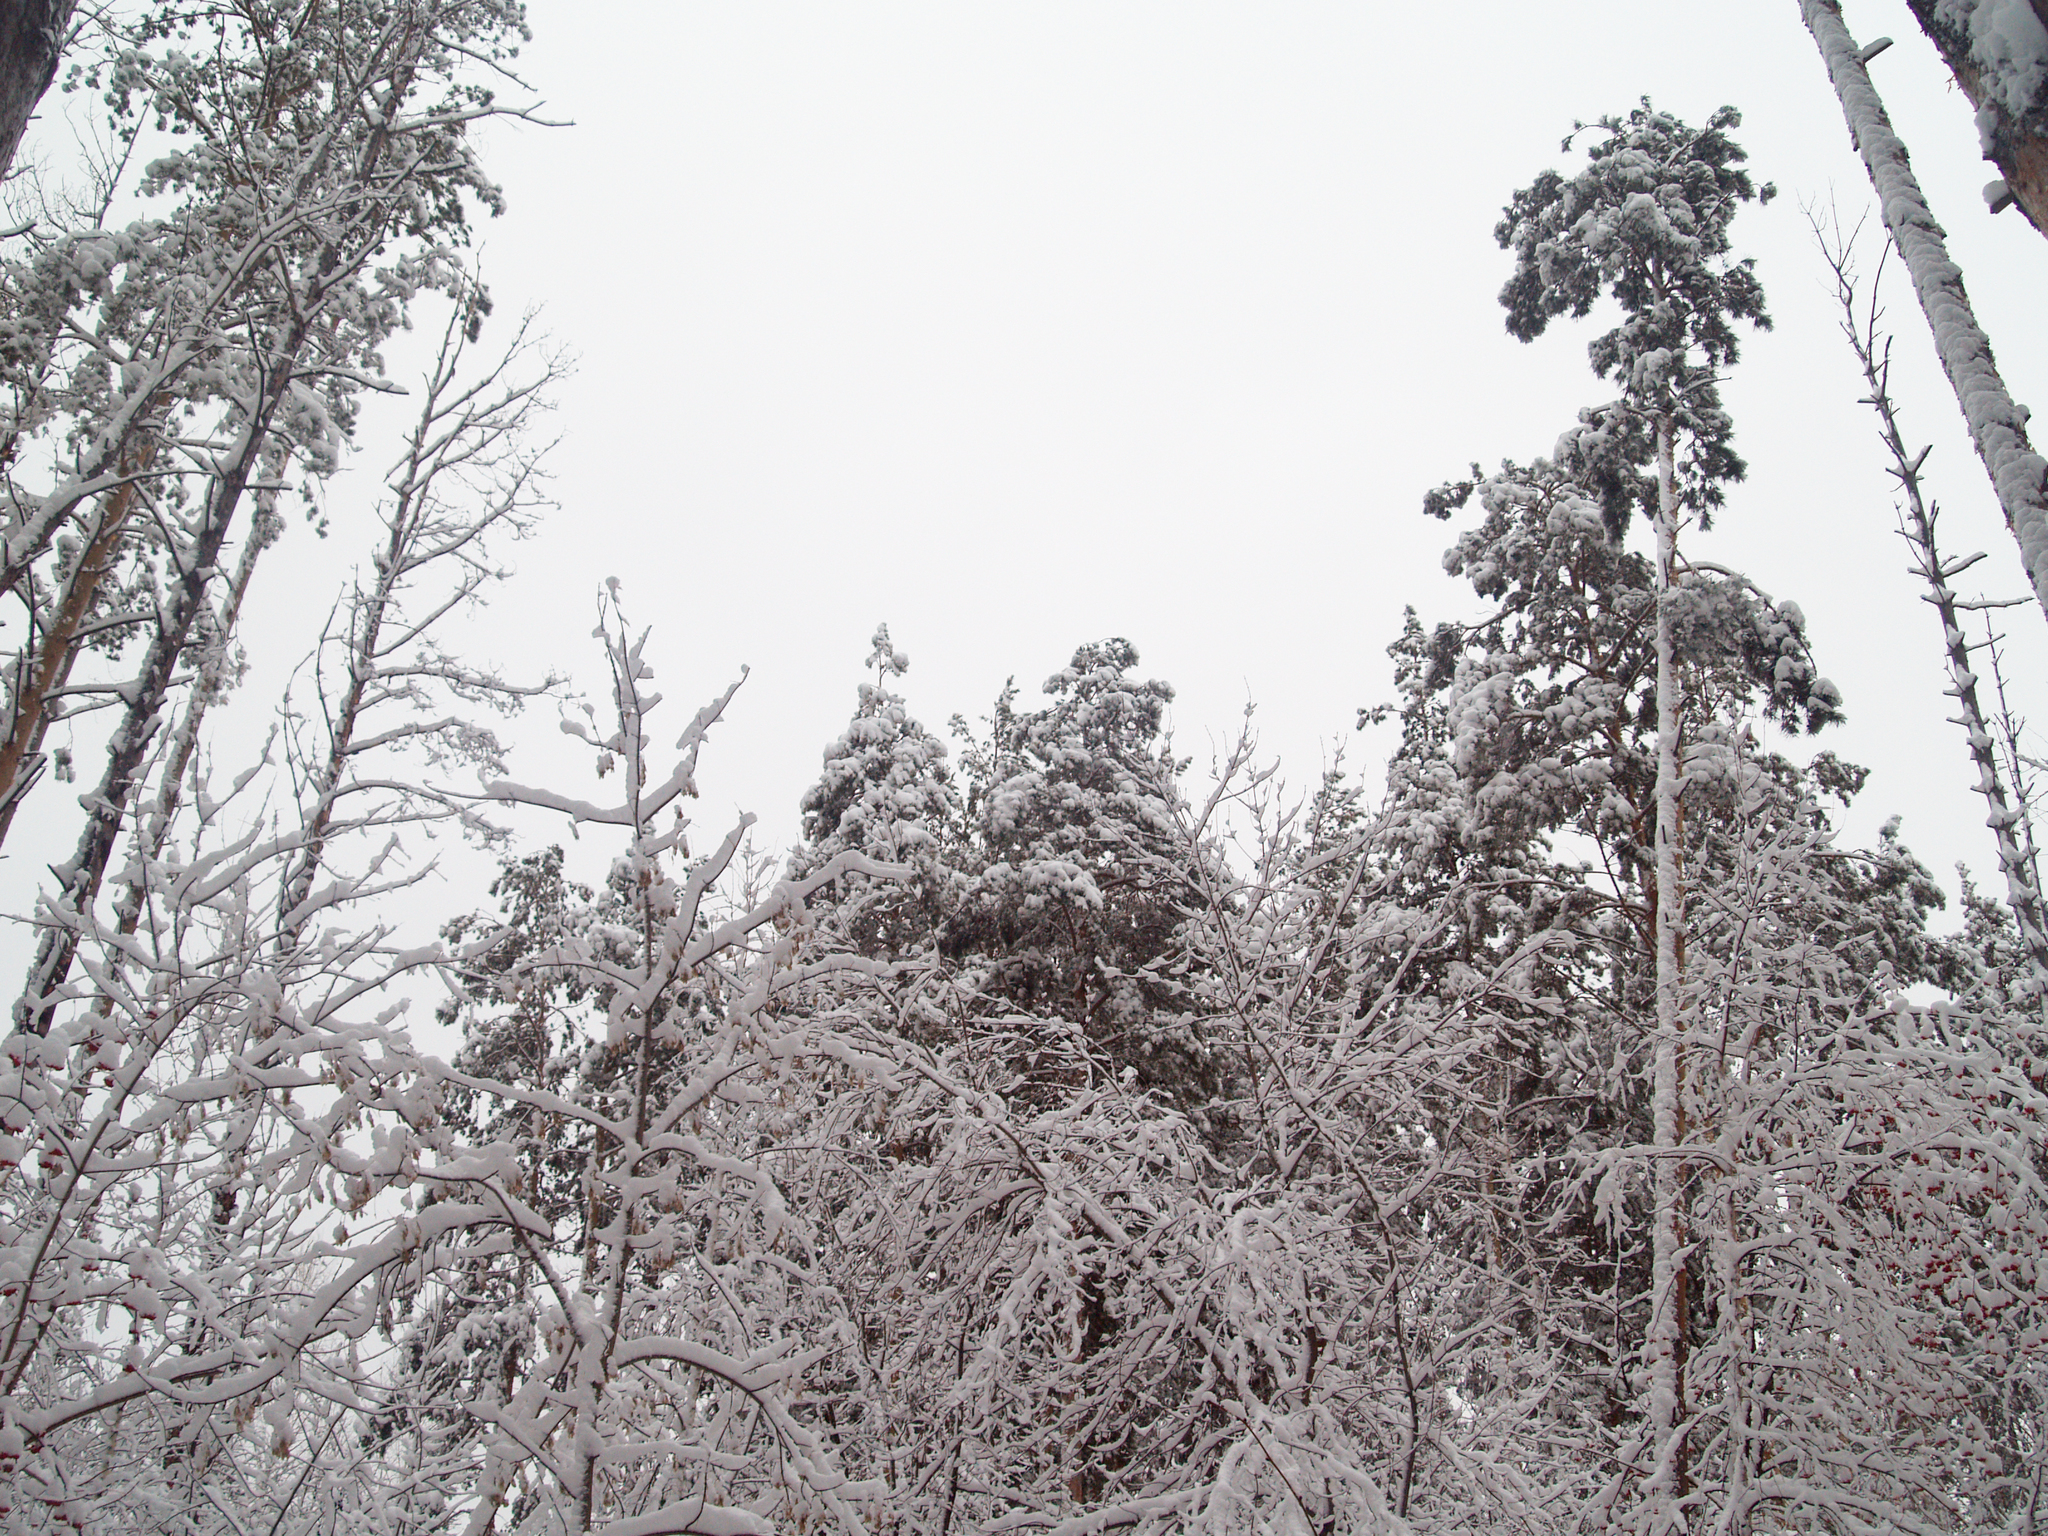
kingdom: Plantae
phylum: Tracheophyta
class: Pinopsida
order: Pinales
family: Pinaceae
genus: Pinus
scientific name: Pinus sylvestris
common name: Scots pine
